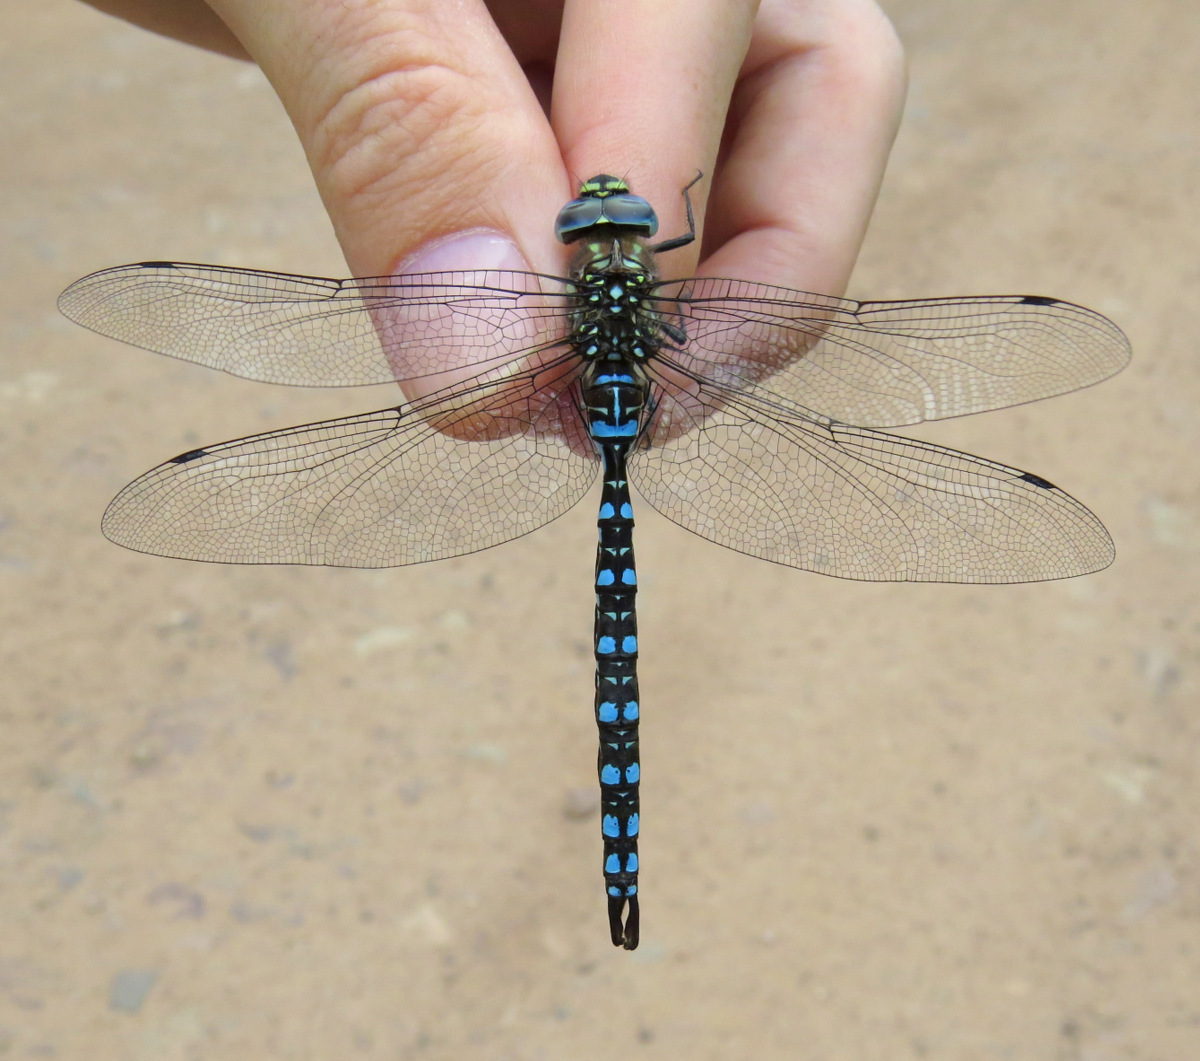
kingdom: Animalia
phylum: Arthropoda
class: Insecta
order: Odonata
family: Aeshnidae
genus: Aeshna
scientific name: Aeshna palmata
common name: Paddle-tailed darner
